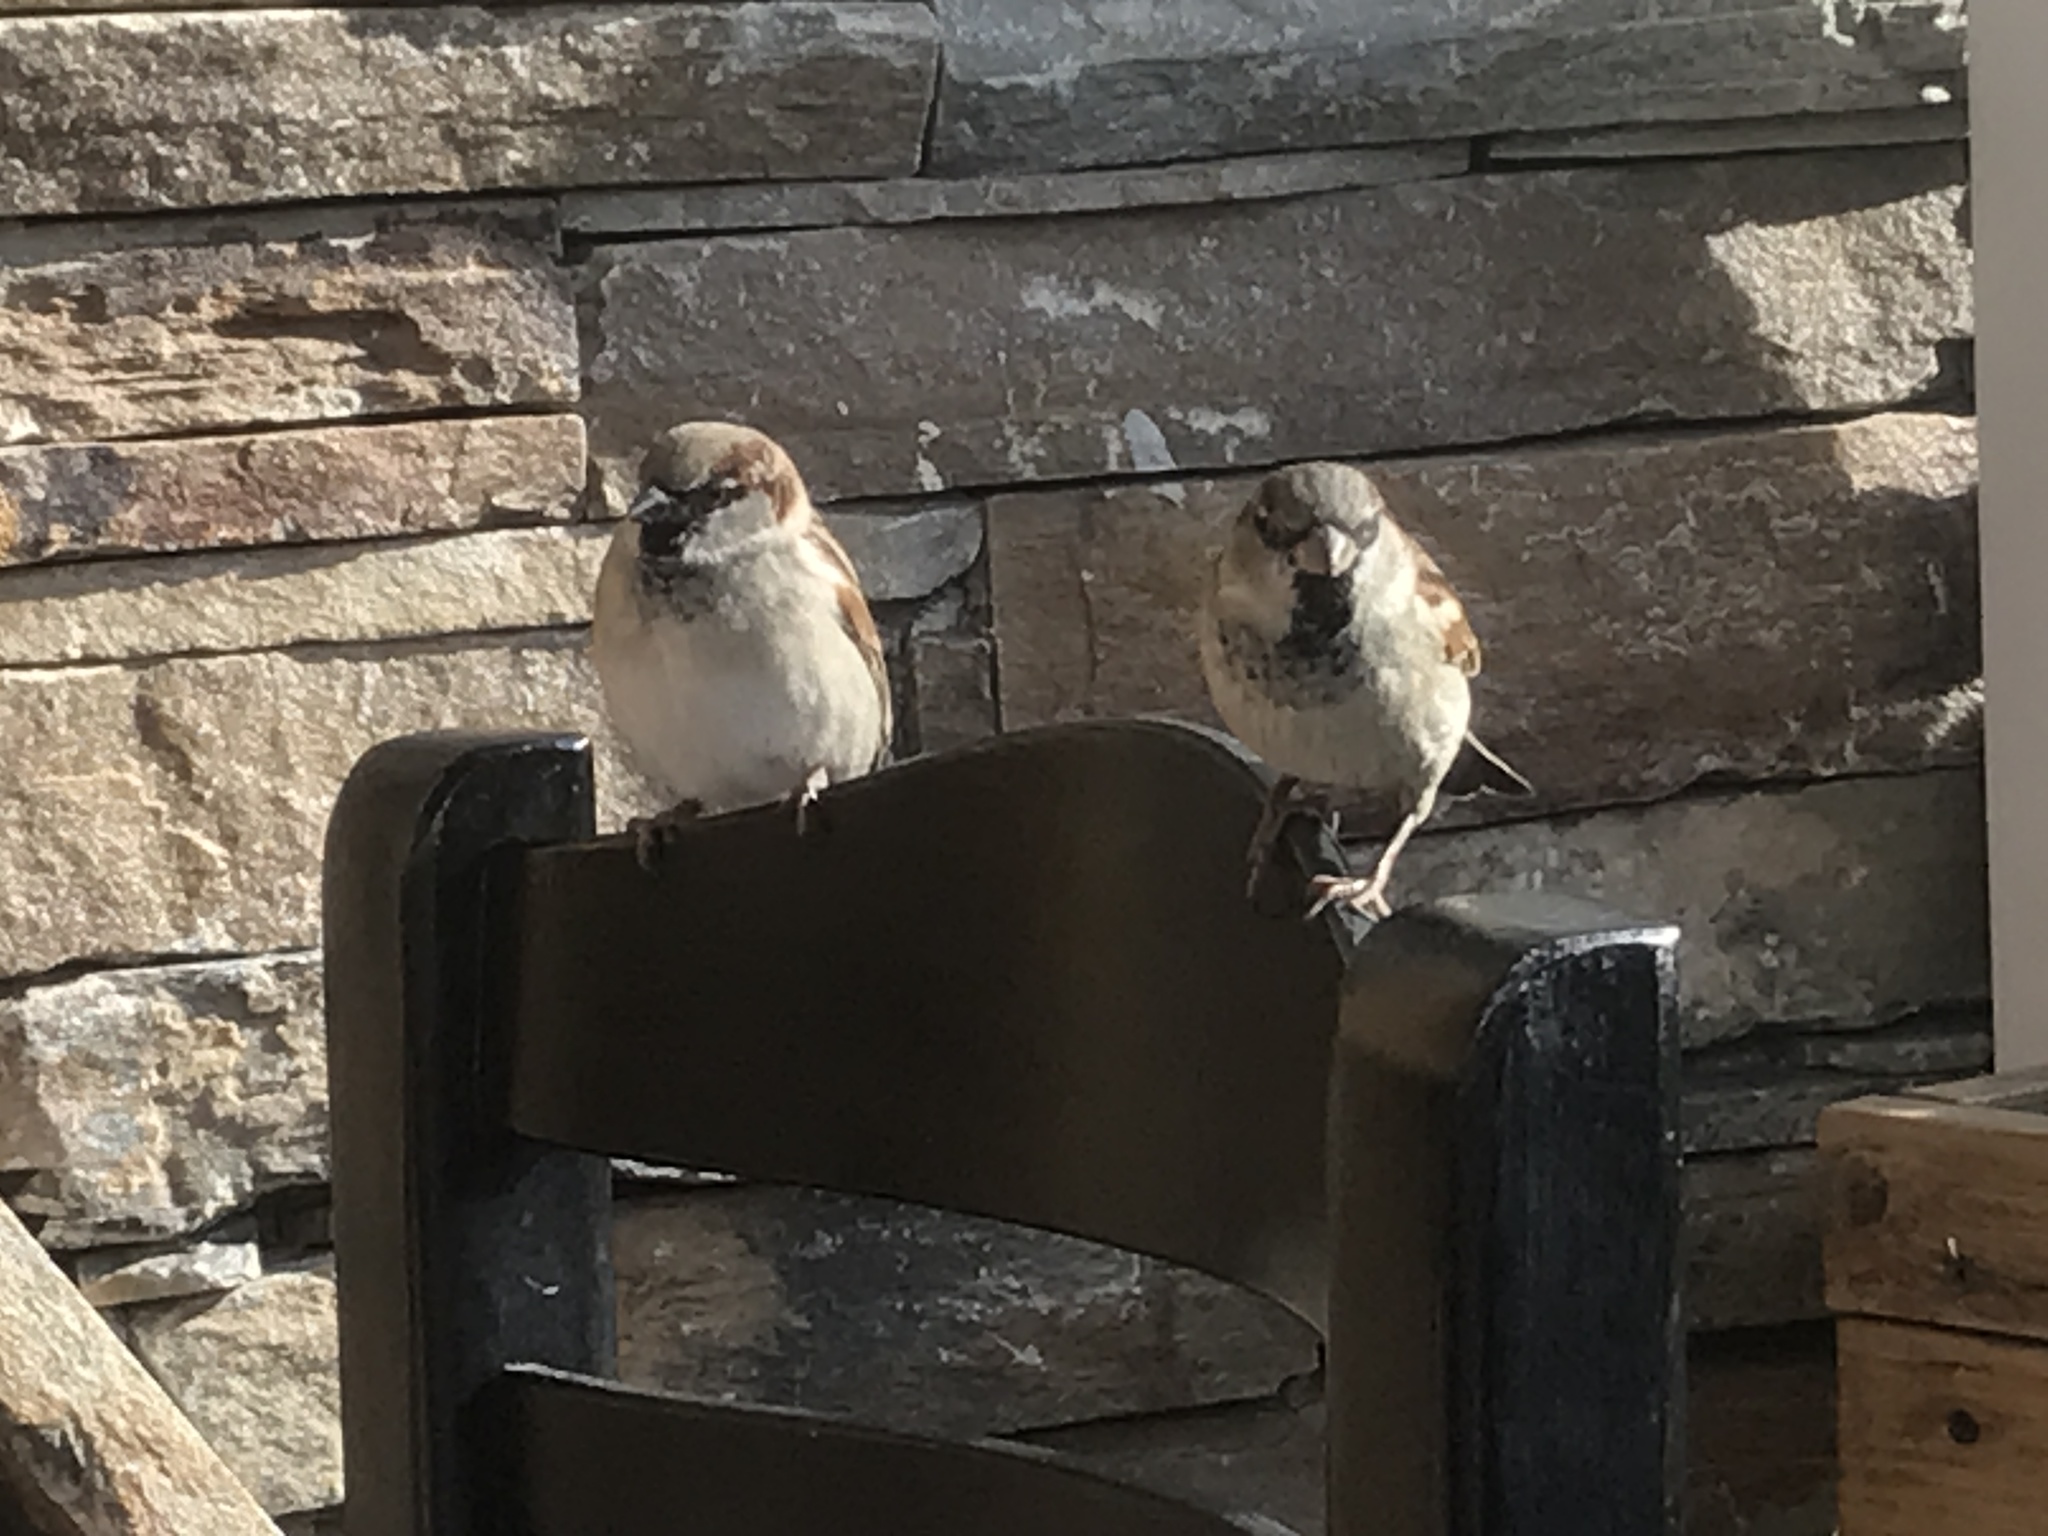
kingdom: Animalia
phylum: Chordata
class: Aves
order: Passeriformes
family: Passeridae
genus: Passer
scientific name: Passer domesticus
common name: House sparrow
